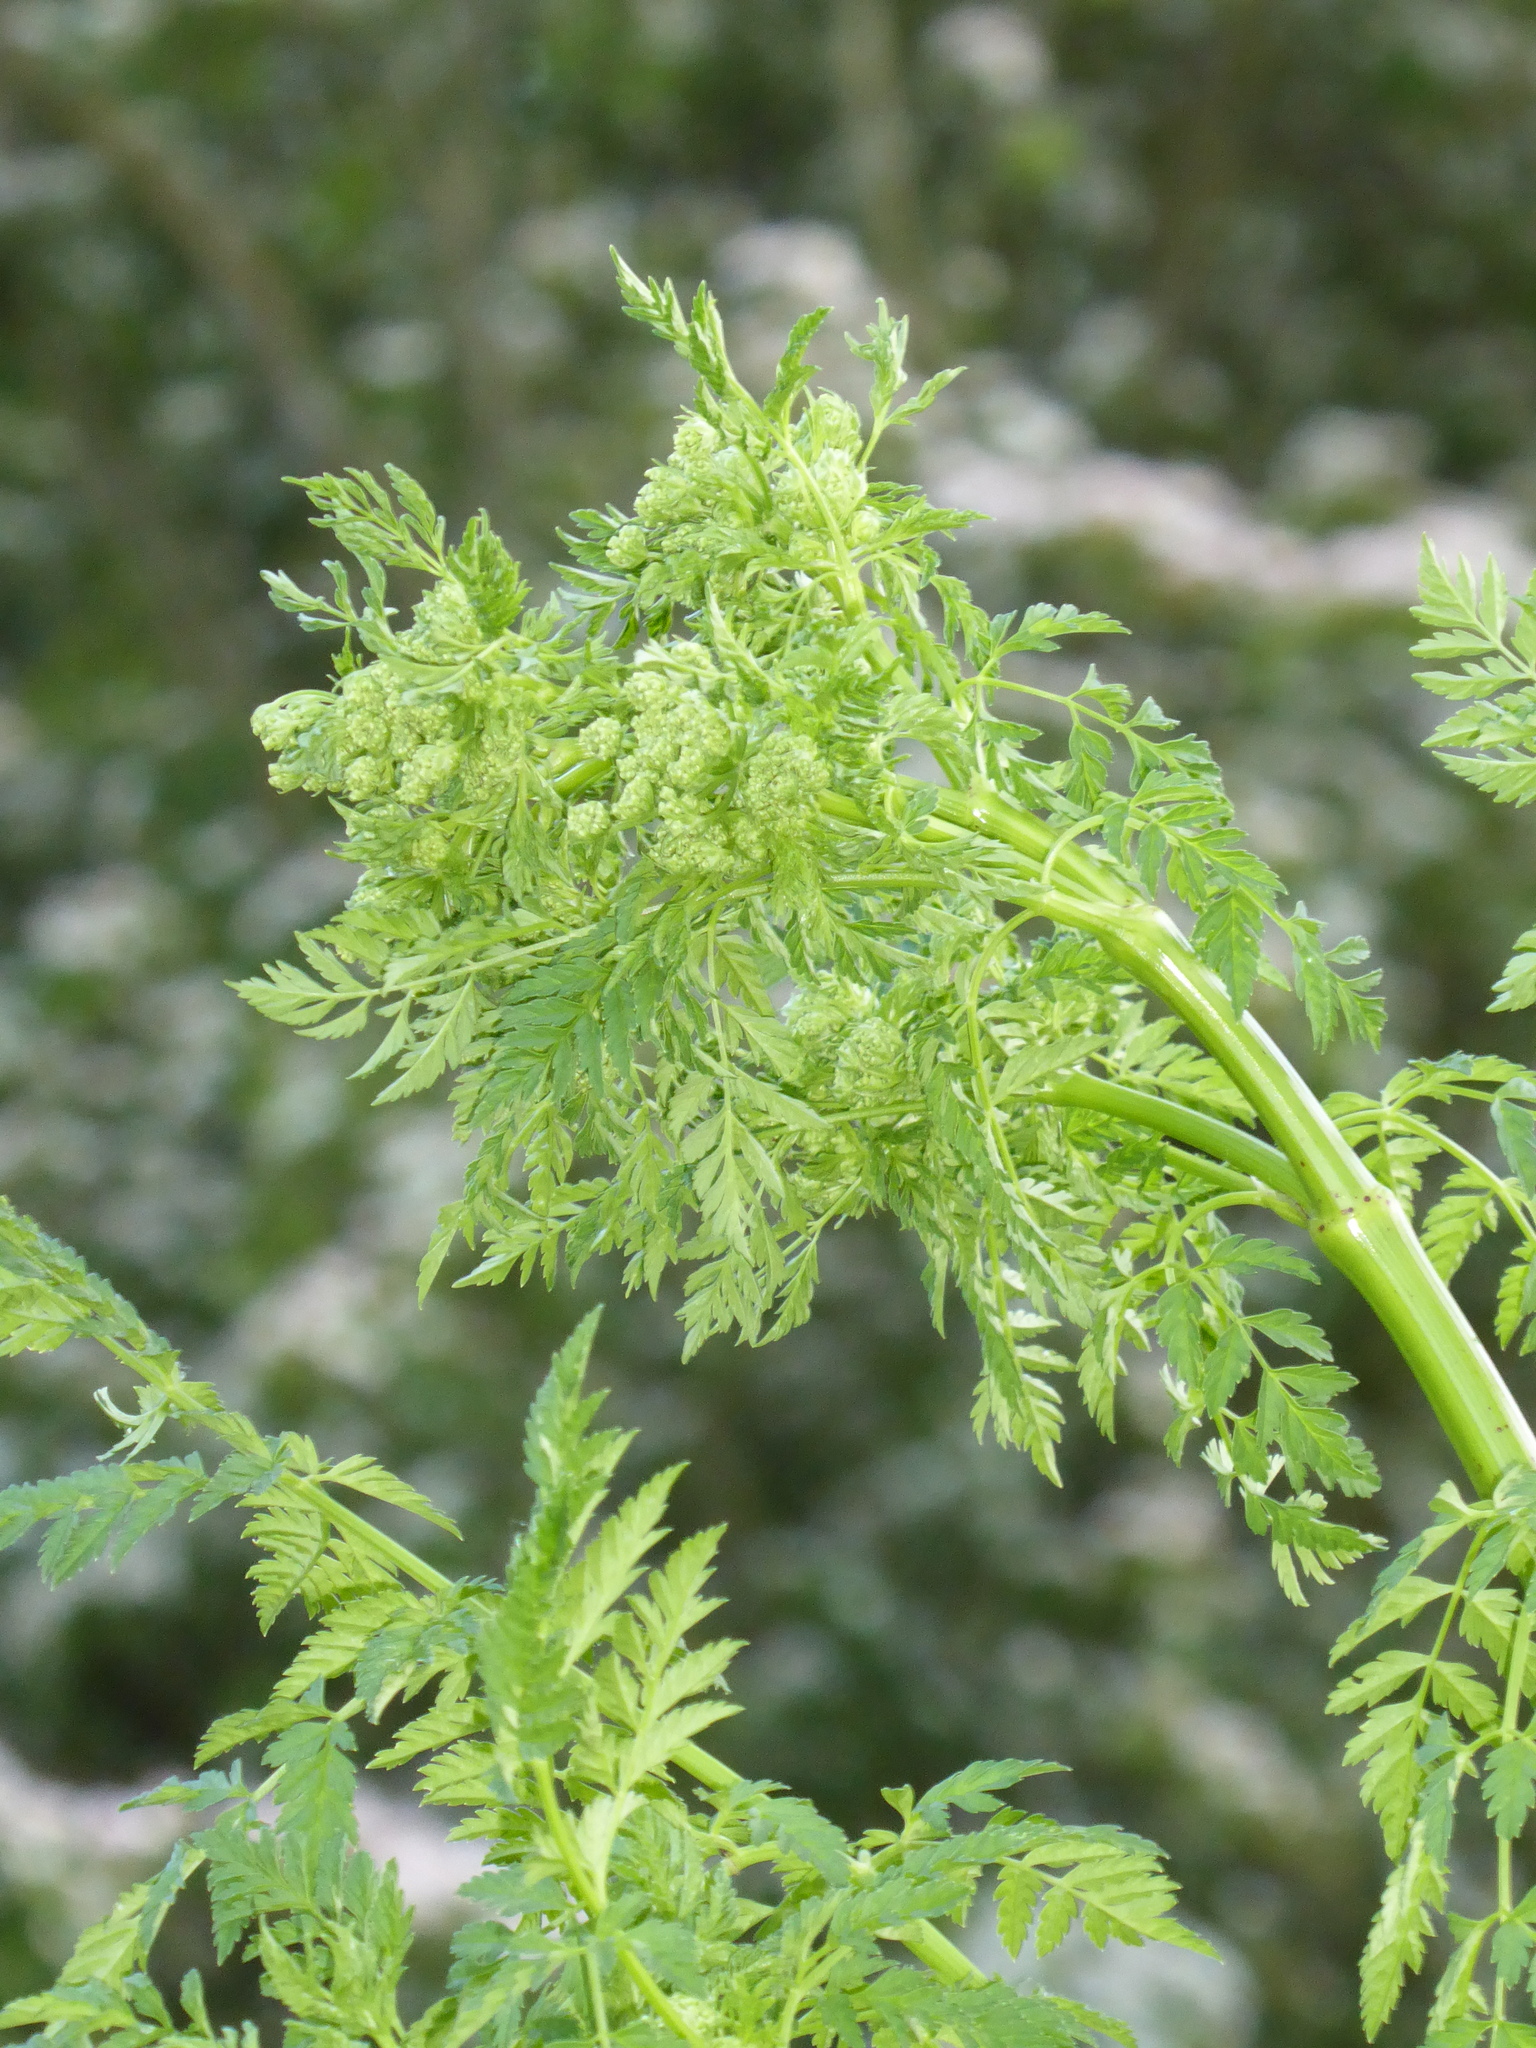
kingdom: Plantae
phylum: Tracheophyta
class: Magnoliopsida
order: Apiales
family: Apiaceae
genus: Conium
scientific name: Conium maculatum
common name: Hemlock
